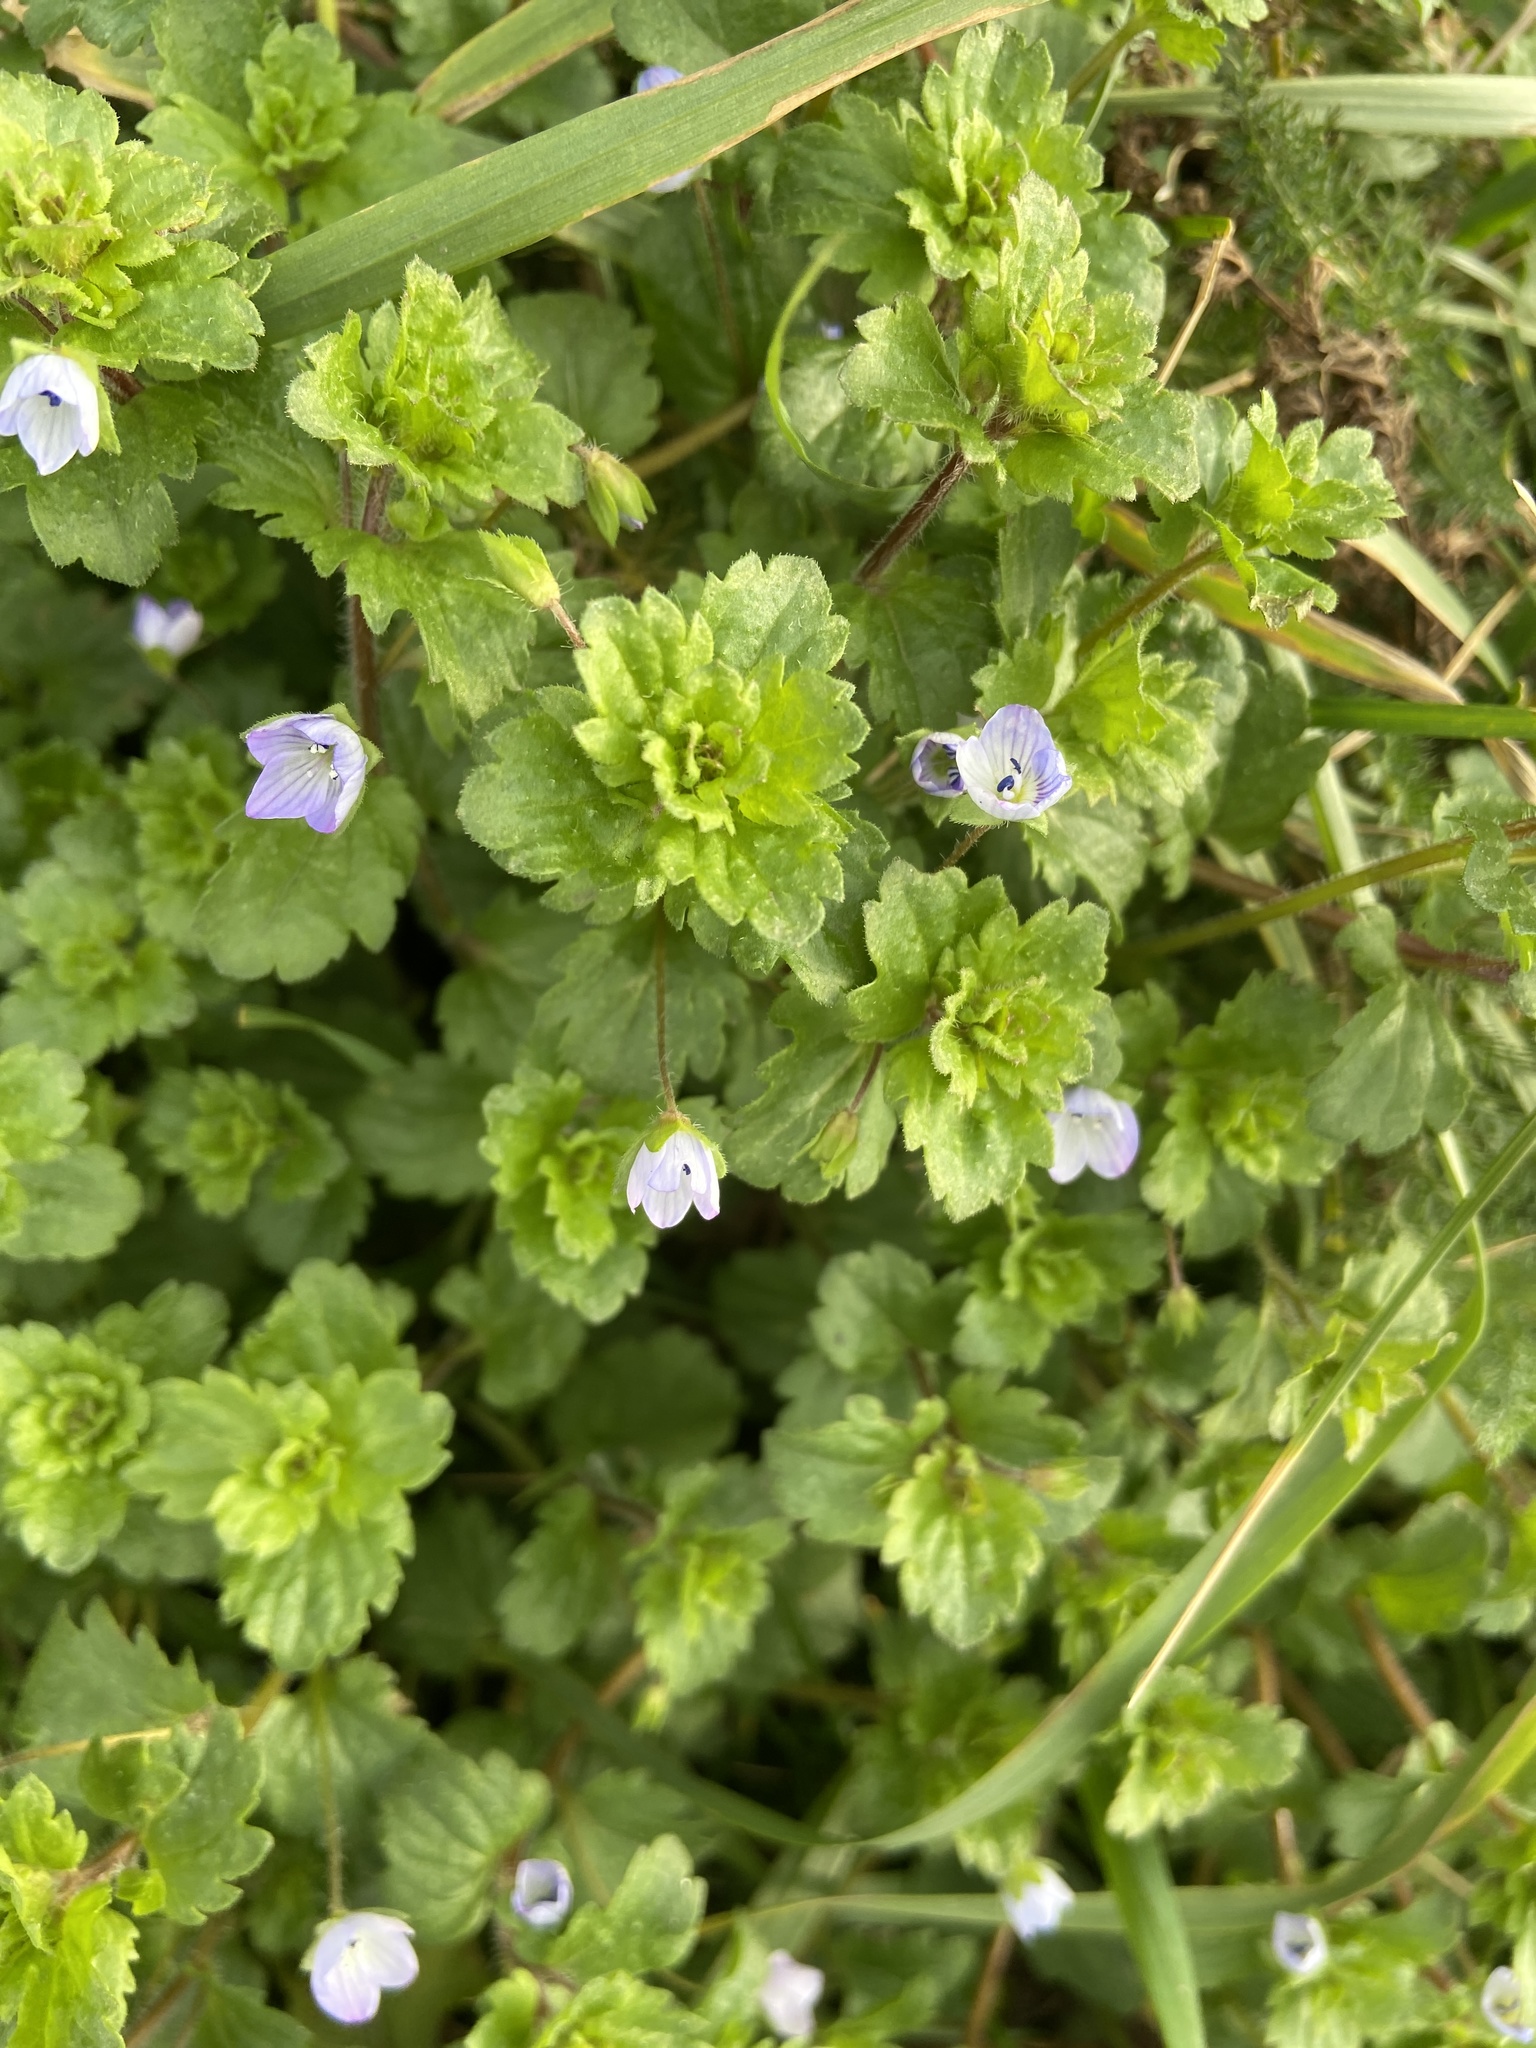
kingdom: Plantae
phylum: Tracheophyta
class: Magnoliopsida
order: Lamiales
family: Plantaginaceae
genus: Veronica
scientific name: Veronica persica
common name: Common field-speedwell
